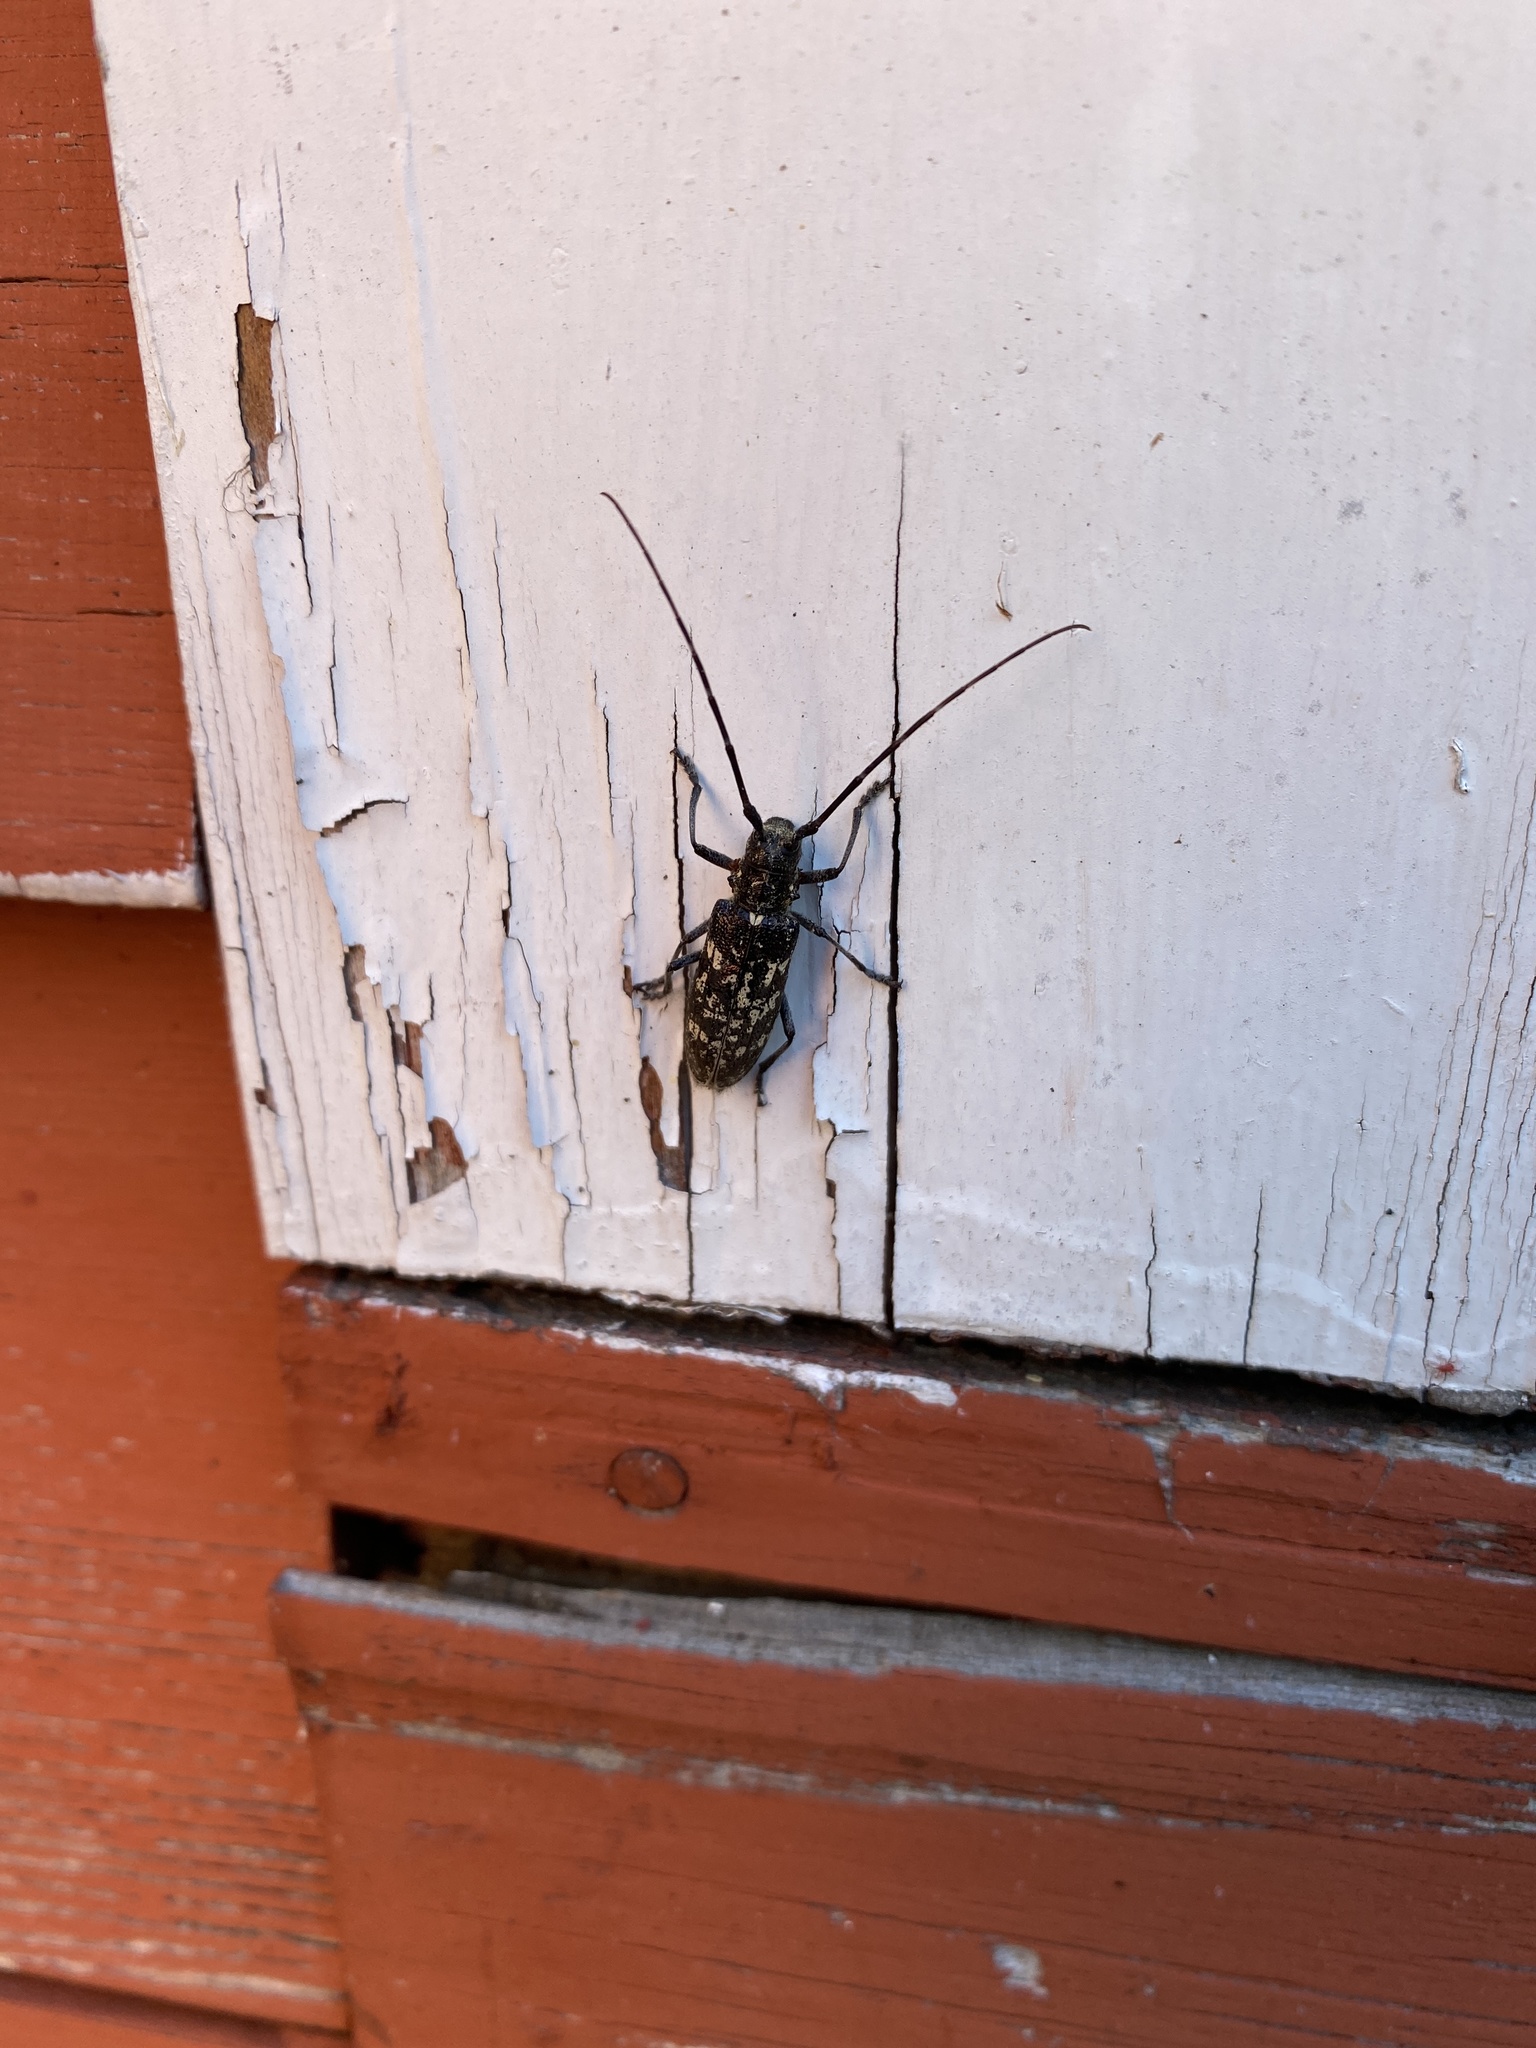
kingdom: Animalia
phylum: Arthropoda
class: Insecta
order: Coleoptera
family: Cerambycidae
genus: Monochamus
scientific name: Monochamus scutellatus
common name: White-spotted sawyer beetle
